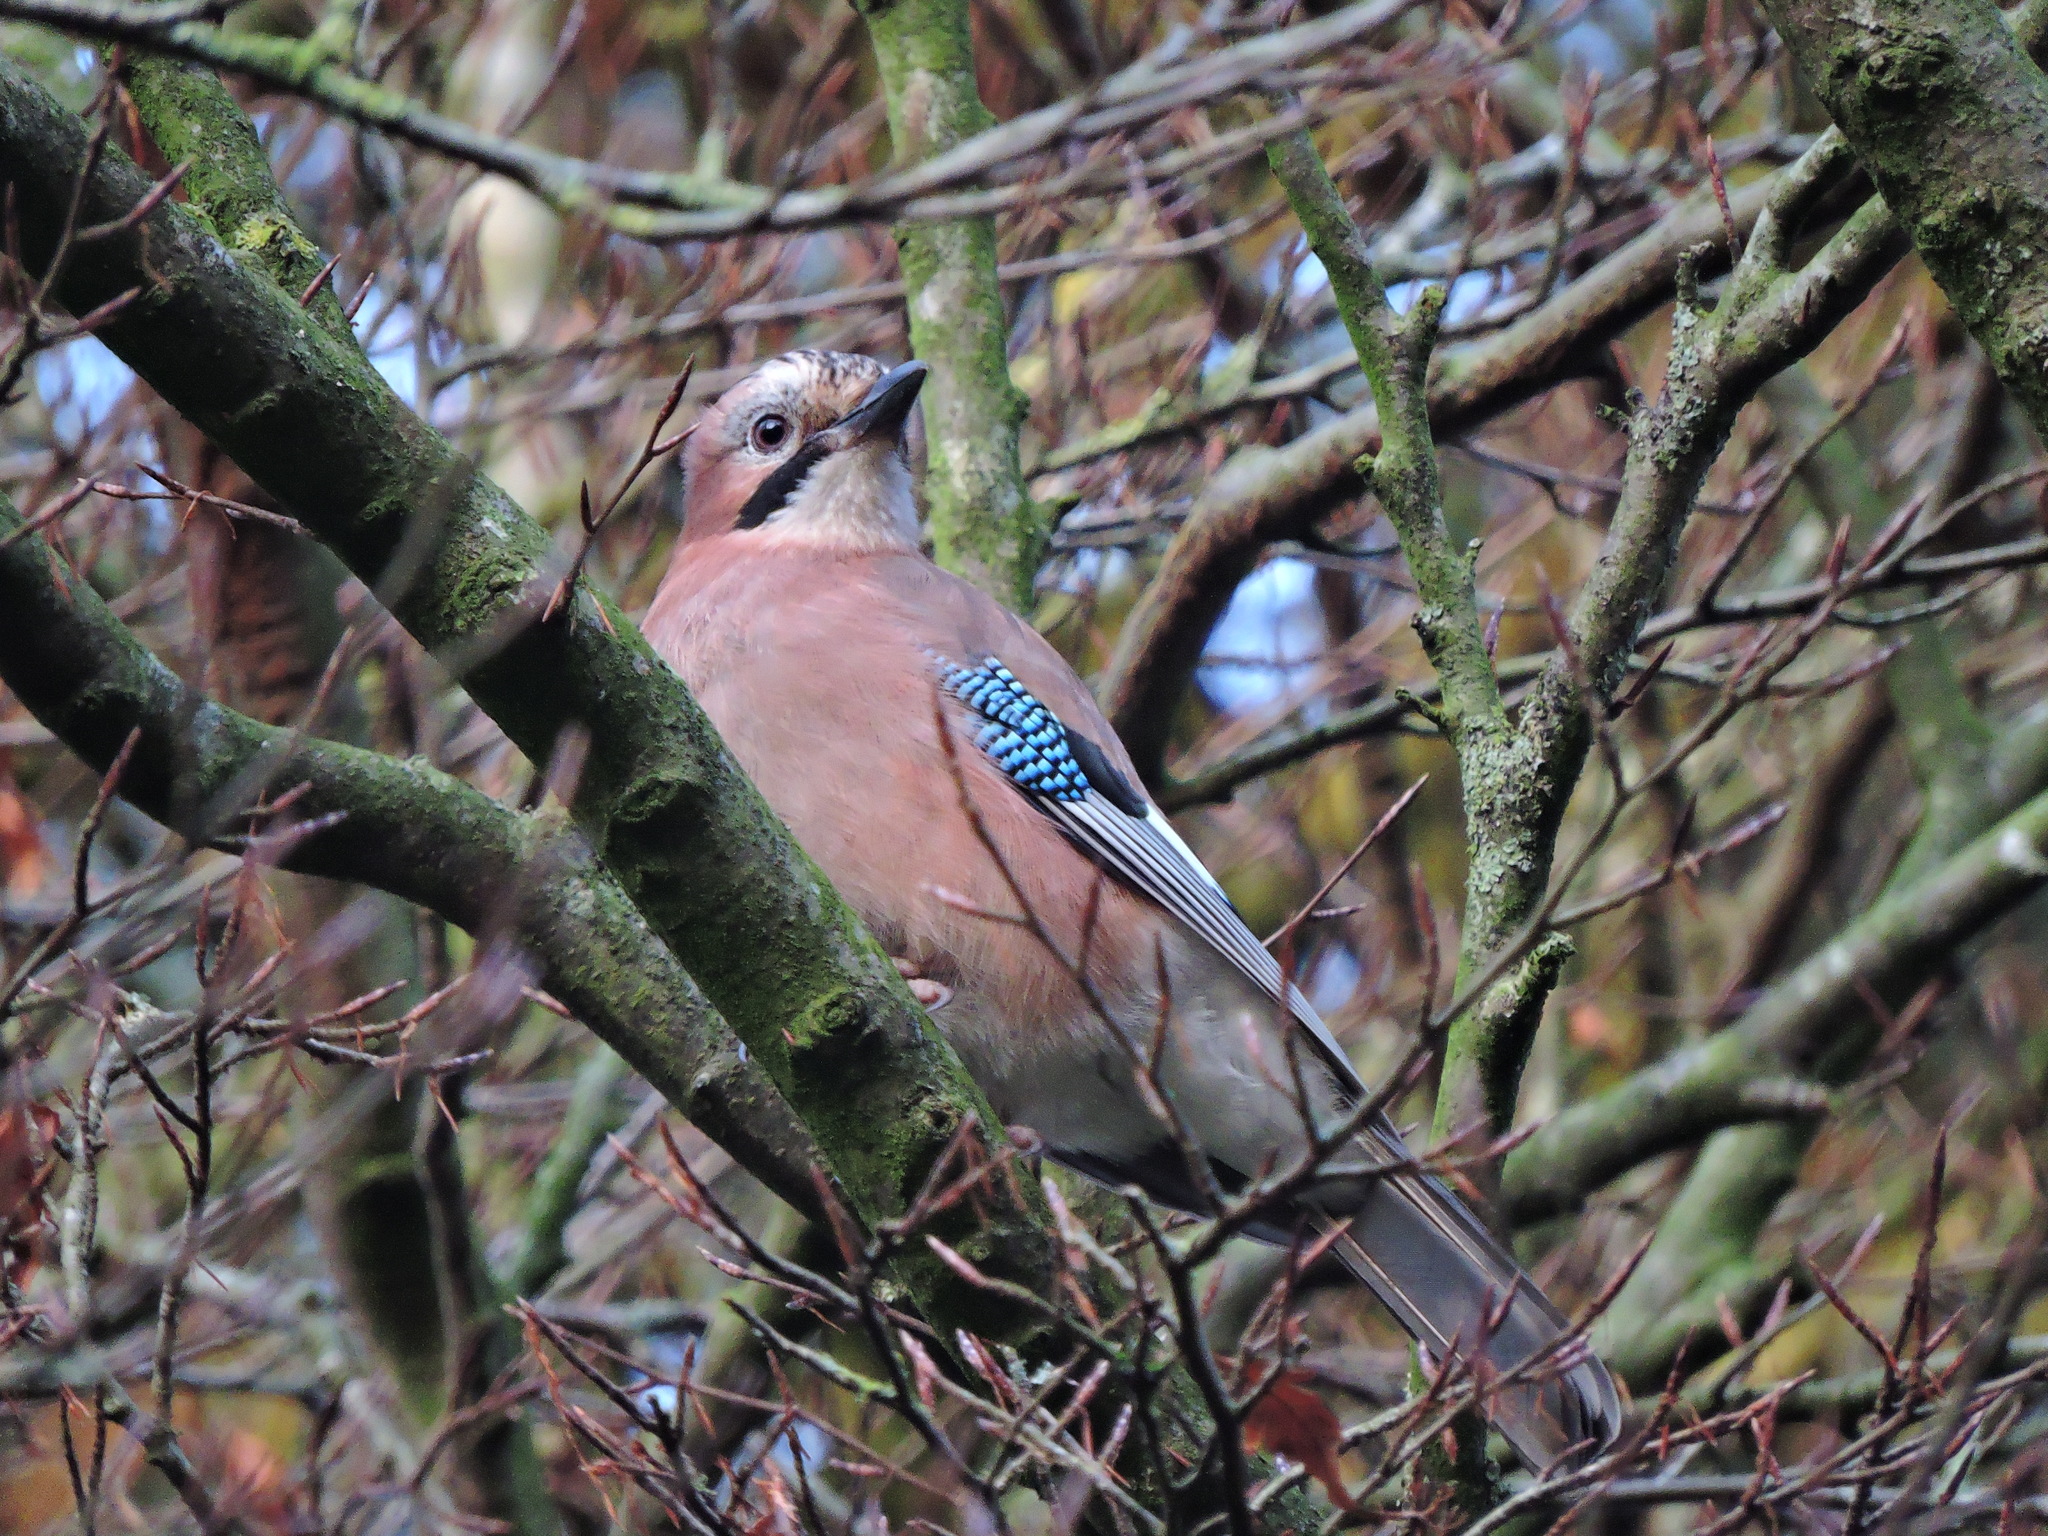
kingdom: Animalia
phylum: Chordata
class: Aves
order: Passeriformes
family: Corvidae
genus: Garrulus
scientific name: Garrulus glandarius
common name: Eurasian jay
